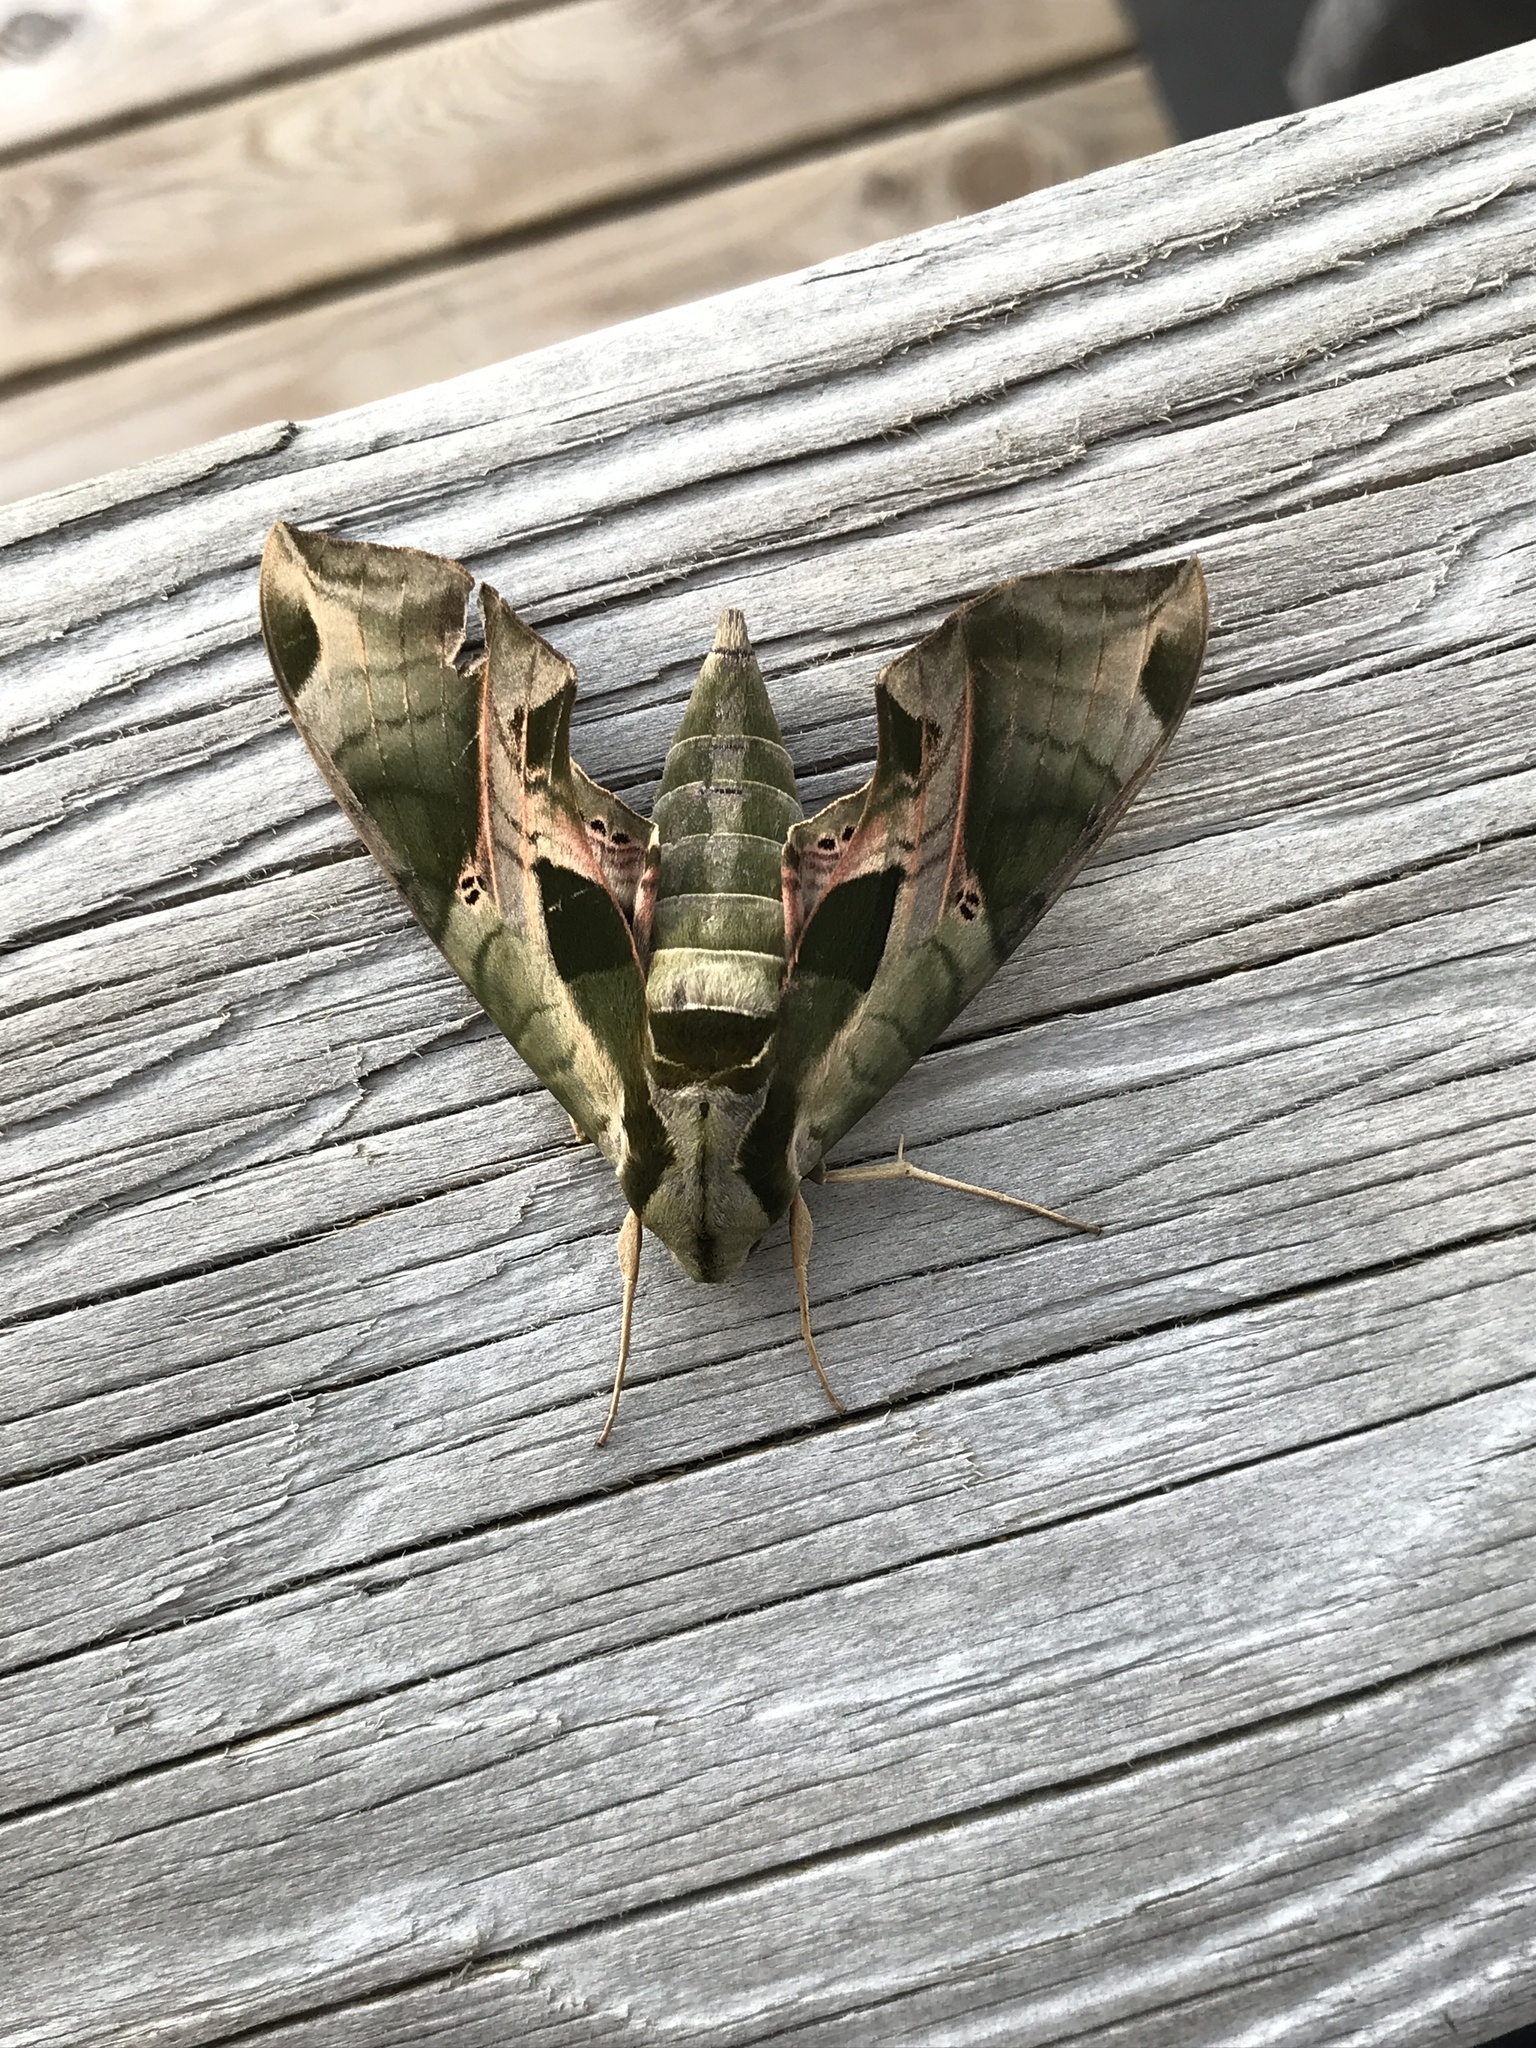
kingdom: Animalia
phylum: Arthropoda
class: Insecta
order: Lepidoptera
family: Sphingidae
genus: Eumorpha
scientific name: Eumorpha pandorus
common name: Pandora sphinx
